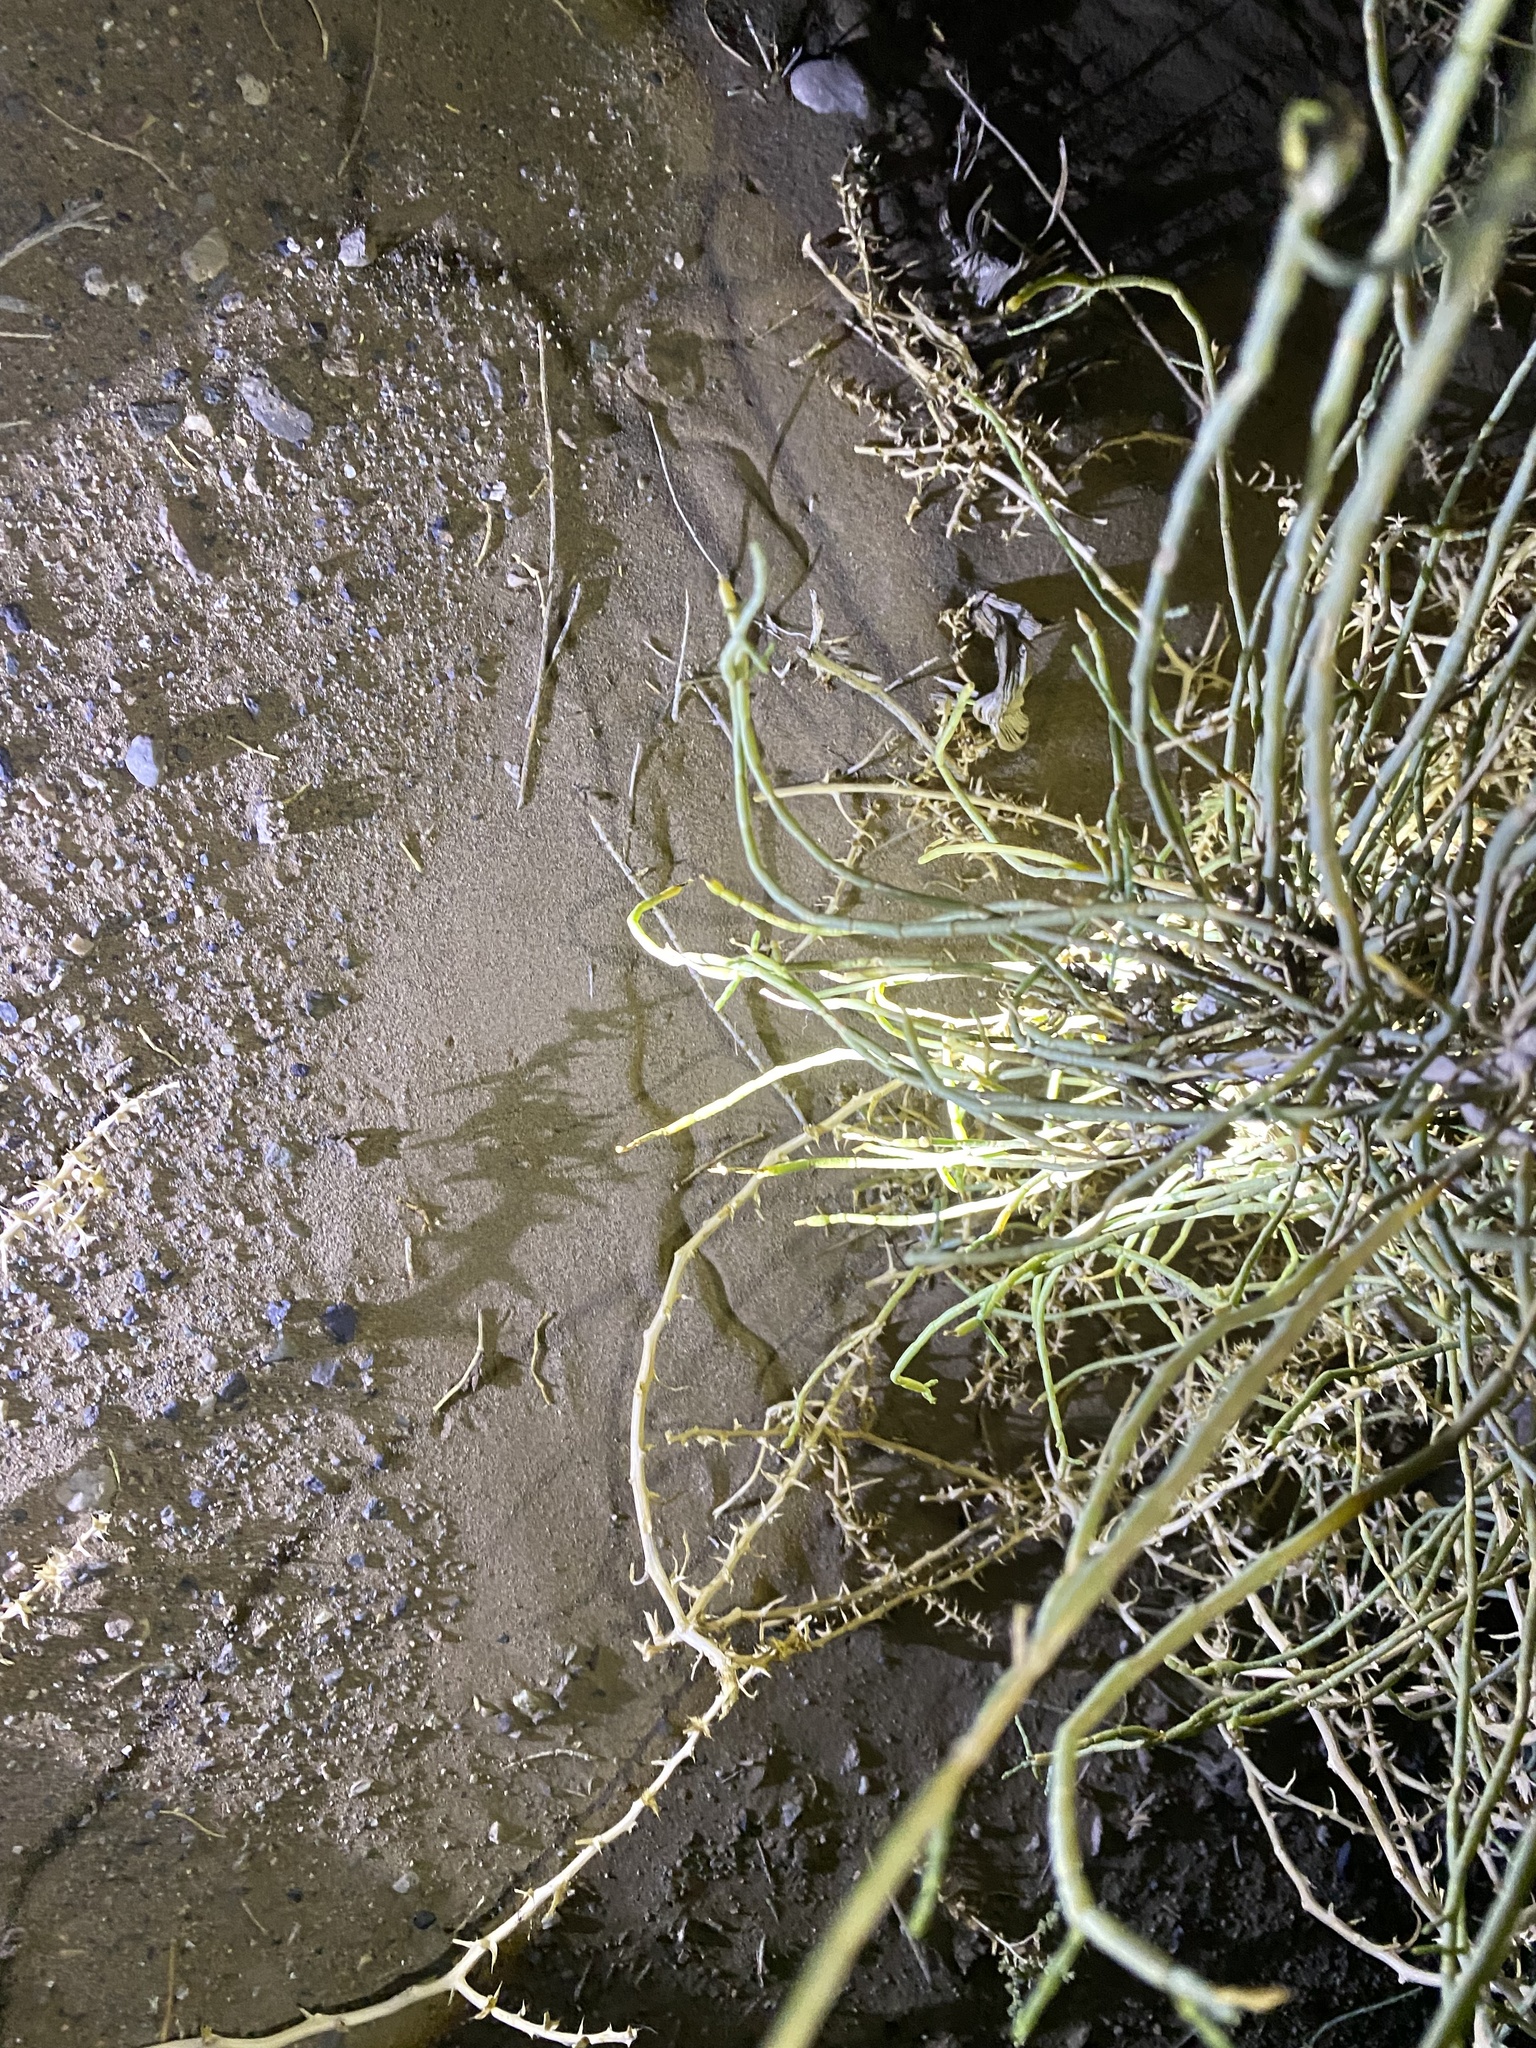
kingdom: Animalia
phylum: Chordata
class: Squamata
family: Scincidae
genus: Ophiomorus
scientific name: Ophiomorus maranjabensis
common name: Maranjab’s snake skink
